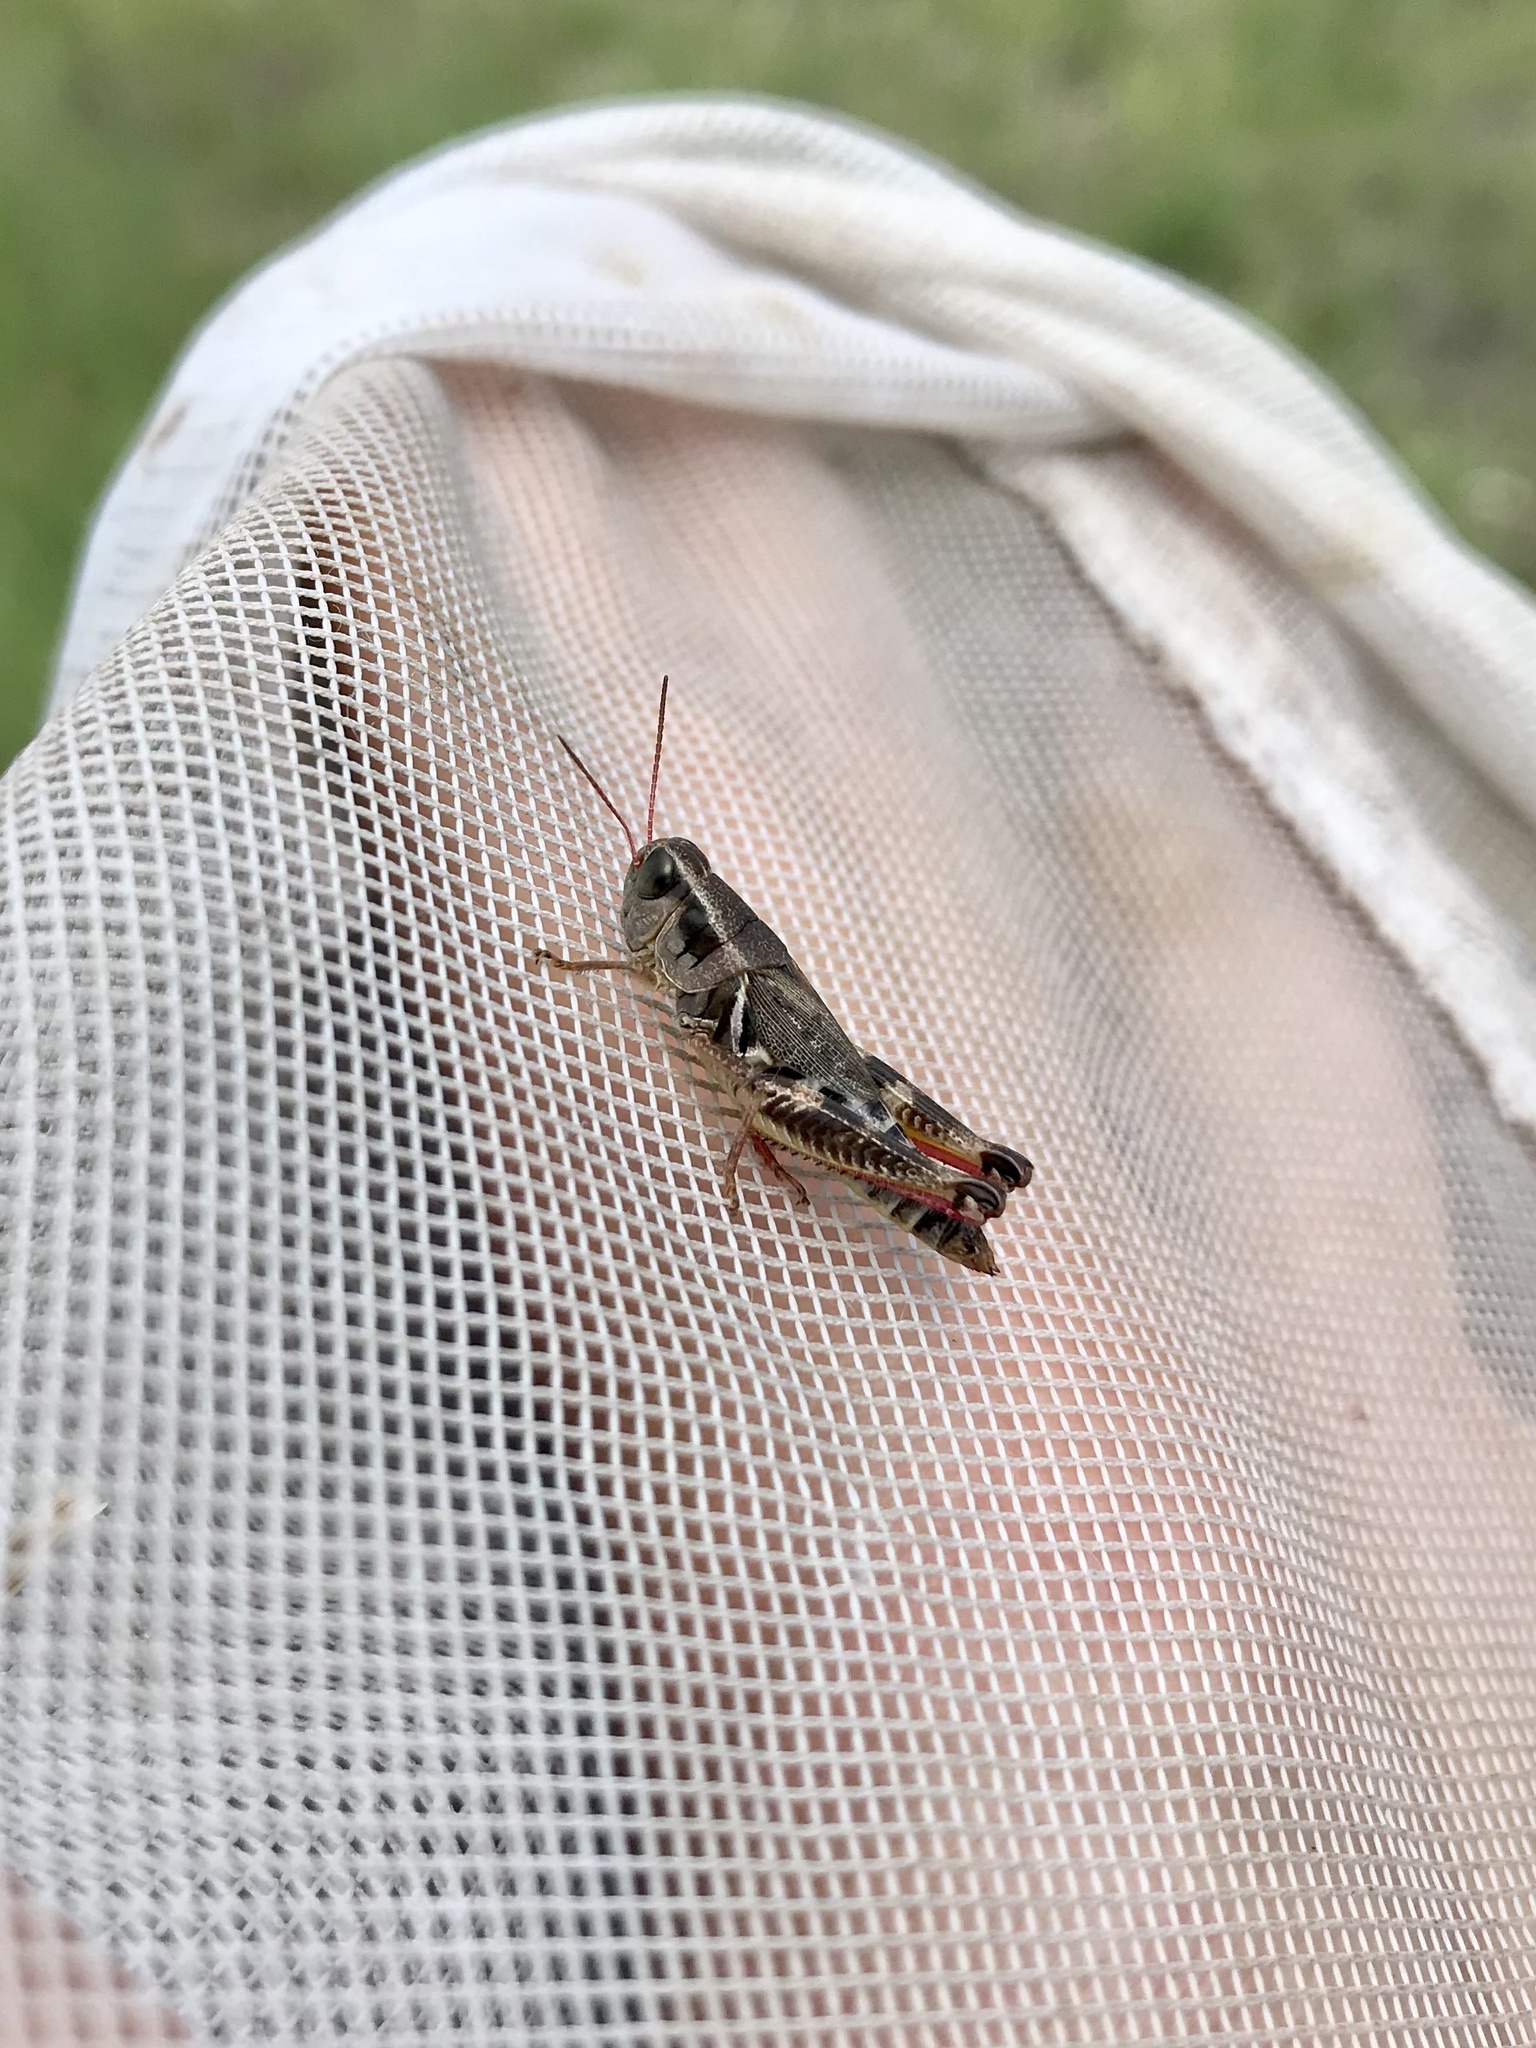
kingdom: Animalia
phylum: Arthropoda
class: Insecta
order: Orthoptera
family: Acrididae
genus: Melanoplus
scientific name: Melanoplus dawsoni
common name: Dawson grasshopper
